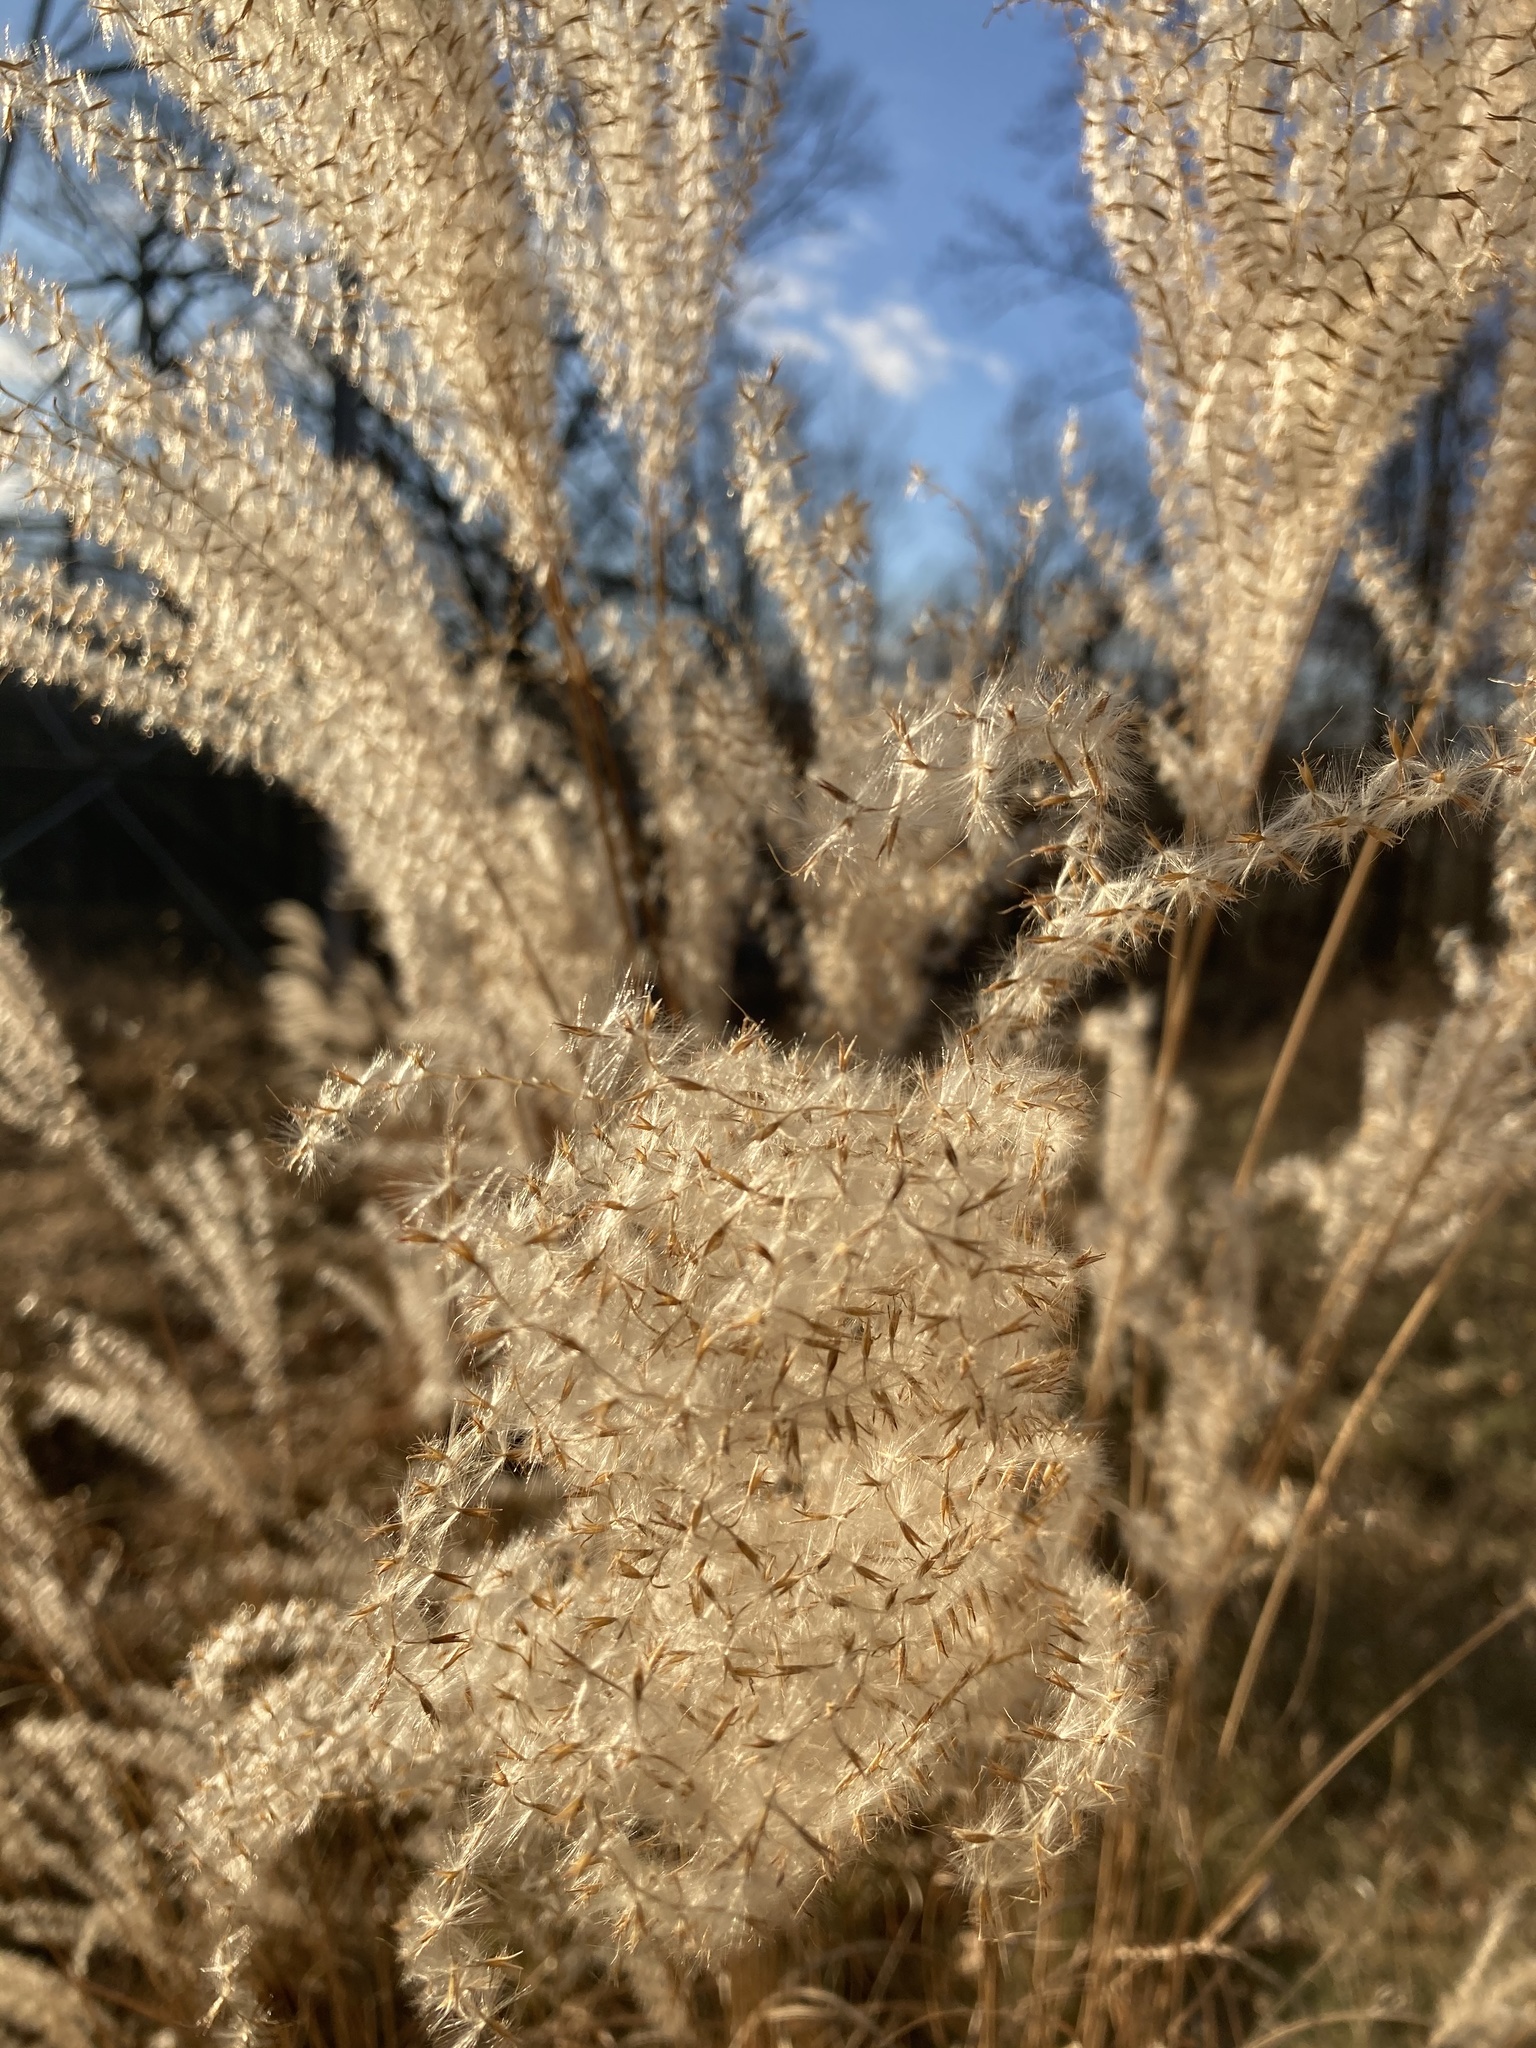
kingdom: Plantae
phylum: Tracheophyta
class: Liliopsida
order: Poales
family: Poaceae
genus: Miscanthus
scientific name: Miscanthus sinensis
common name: Chinese silvergrass
